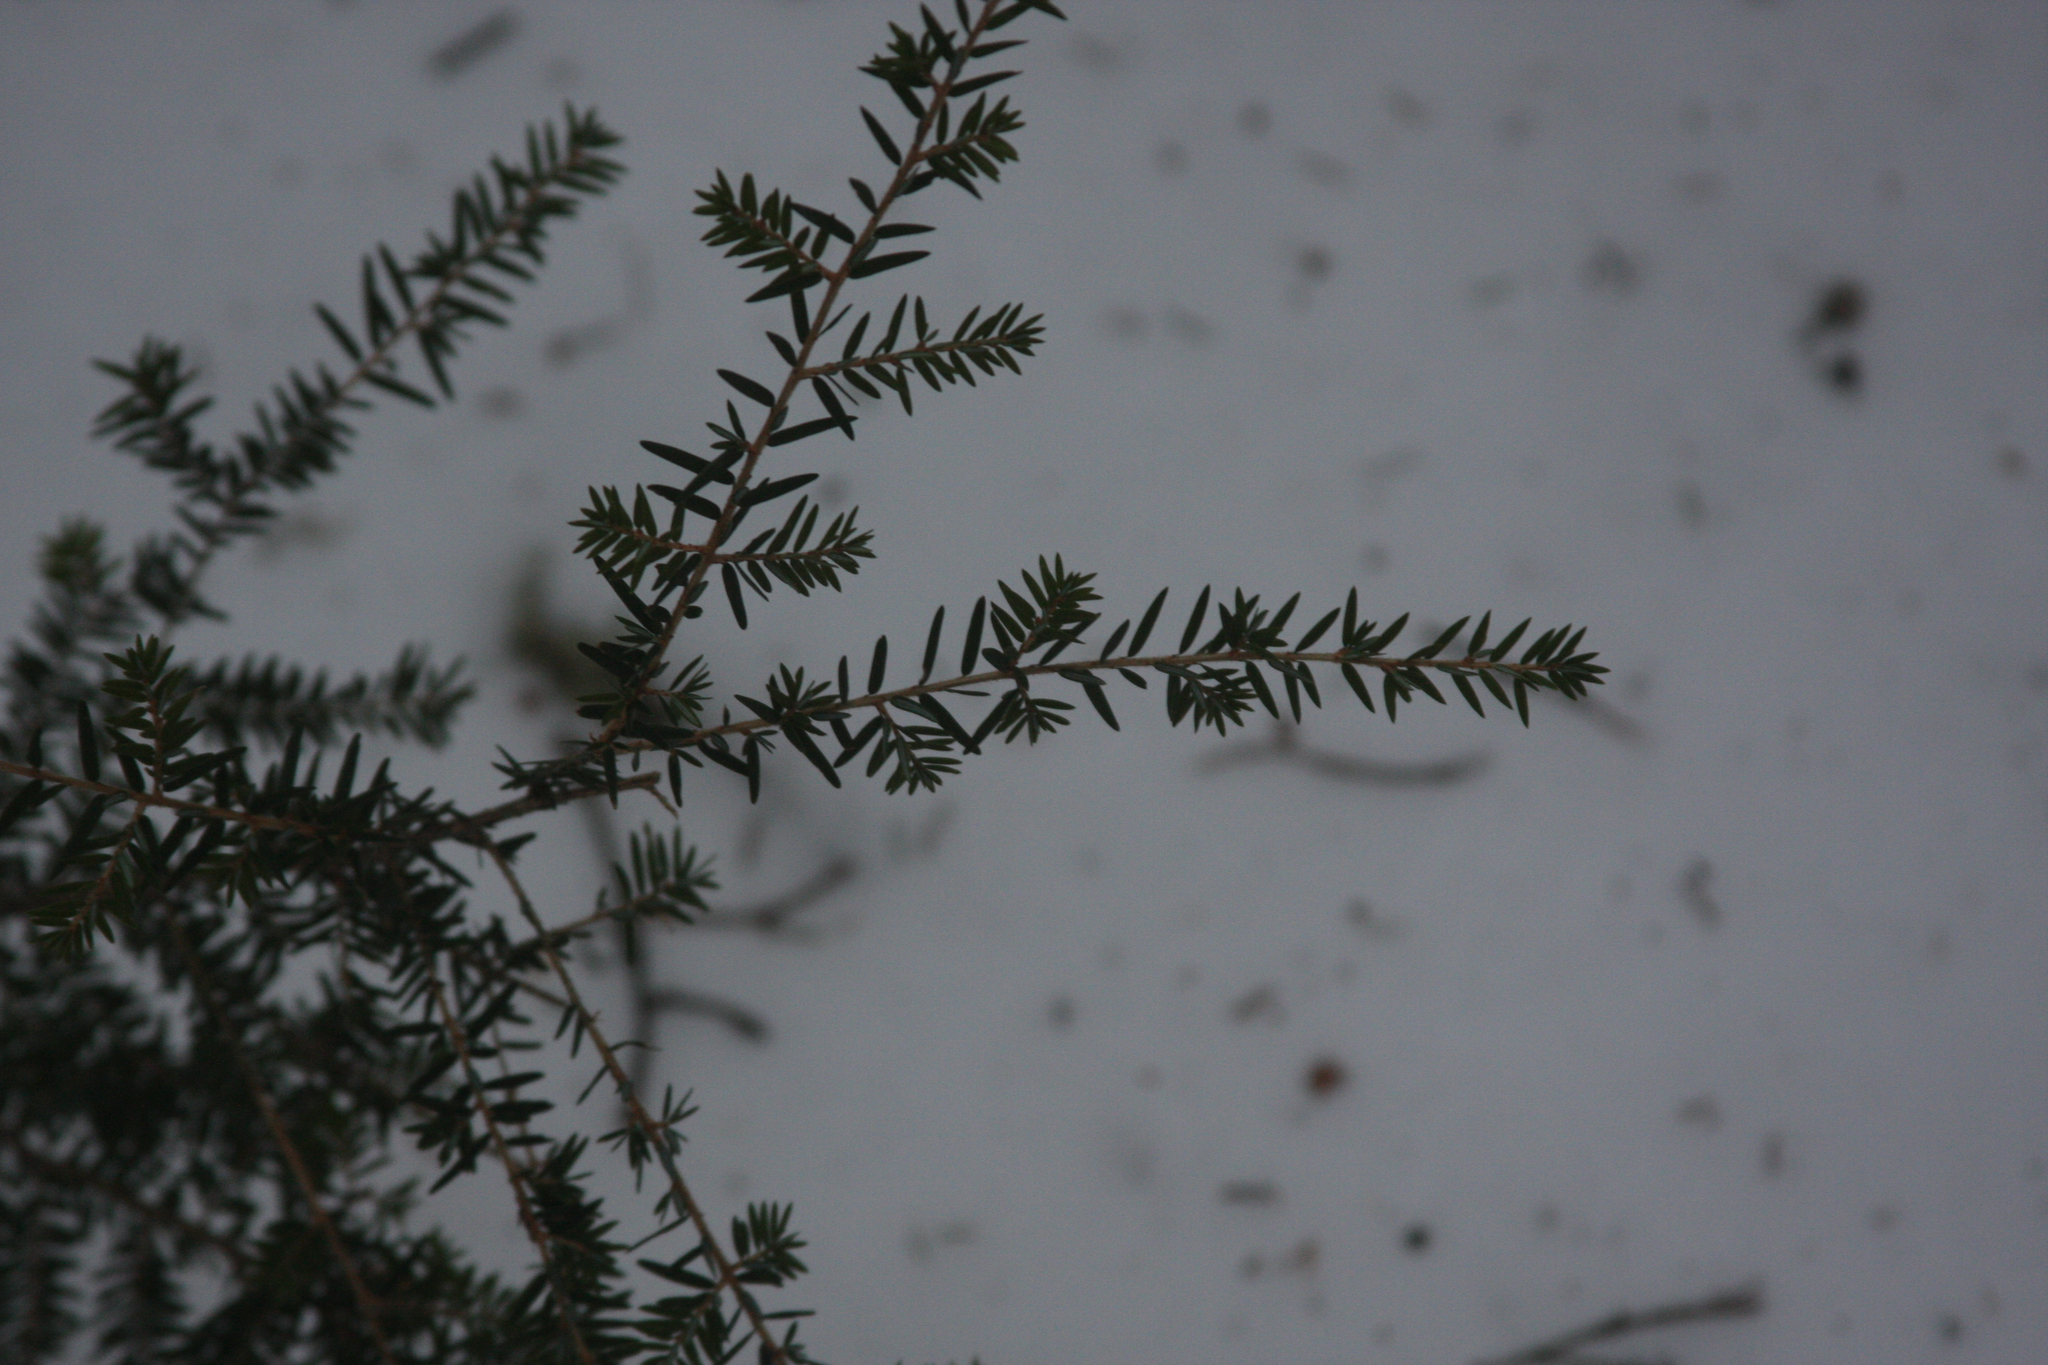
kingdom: Plantae
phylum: Tracheophyta
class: Pinopsida
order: Pinales
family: Pinaceae
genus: Tsuga
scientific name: Tsuga canadensis
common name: Eastern hemlock
